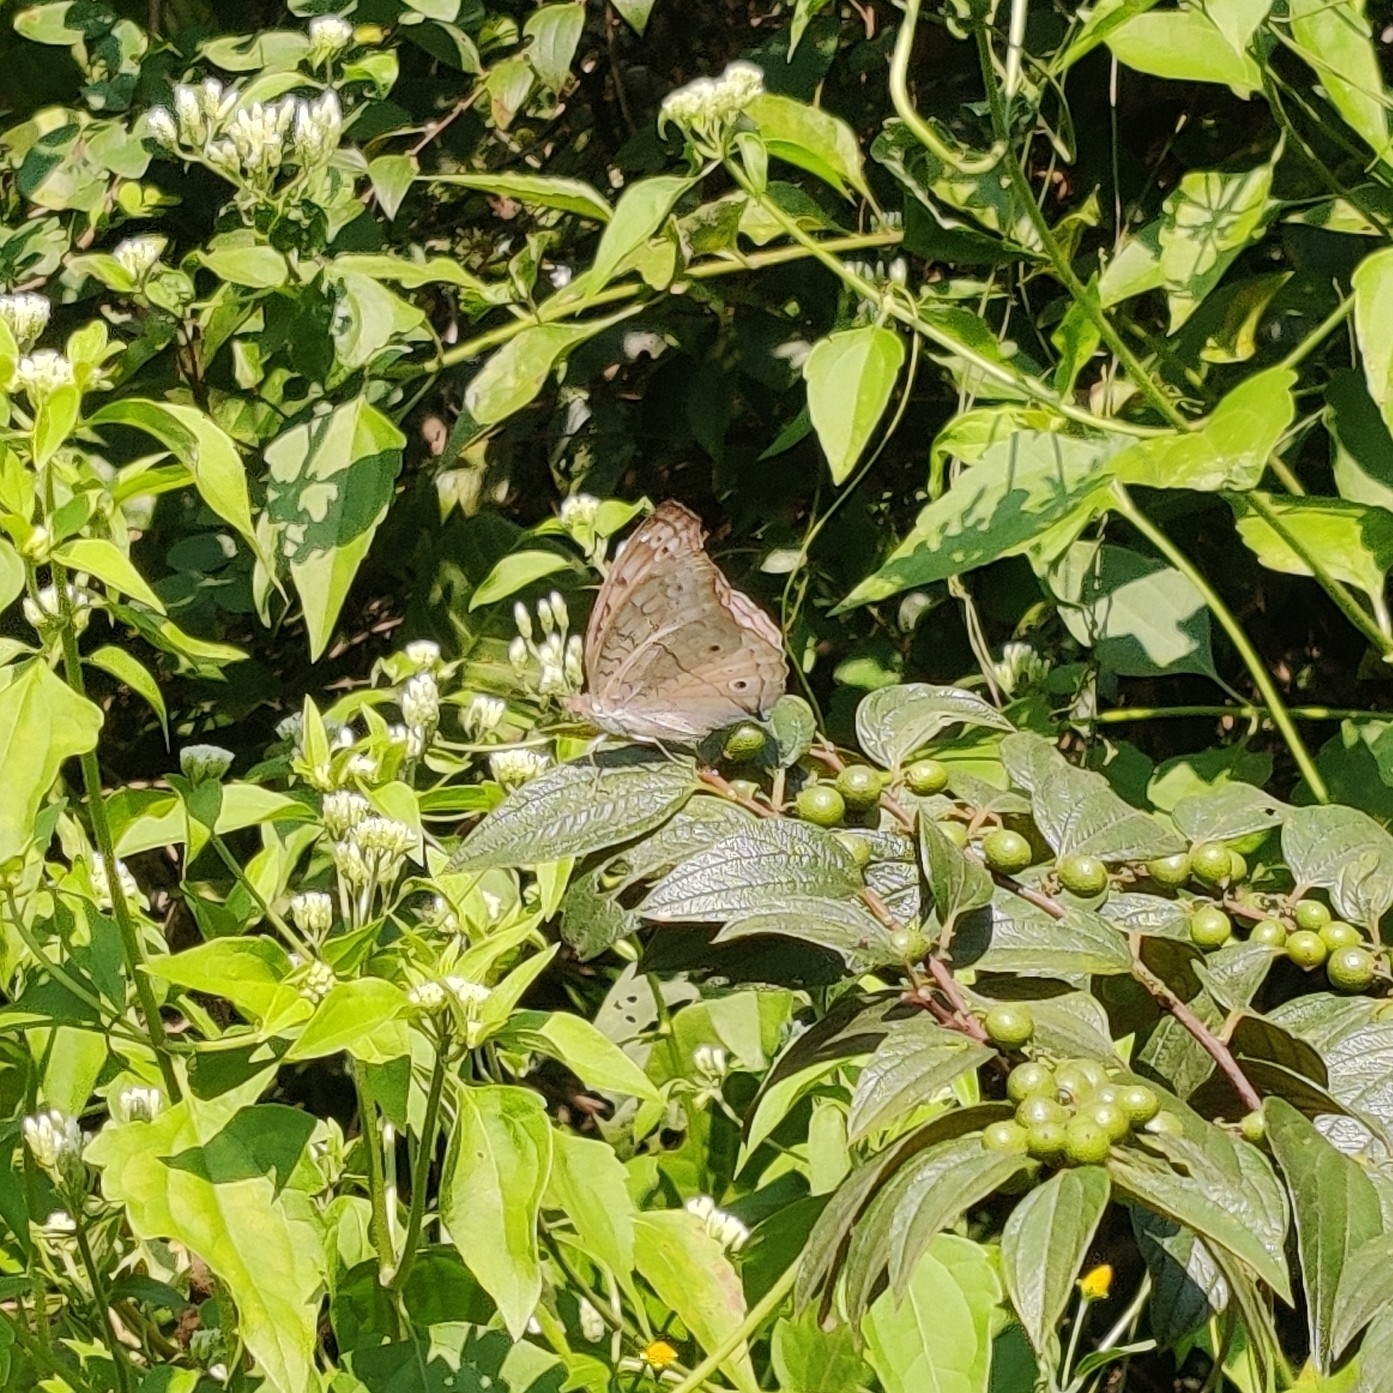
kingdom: Animalia
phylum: Arthropoda
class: Insecta
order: Lepidoptera
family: Nymphalidae
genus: Junonia
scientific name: Junonia atlites
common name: Grey pansy
